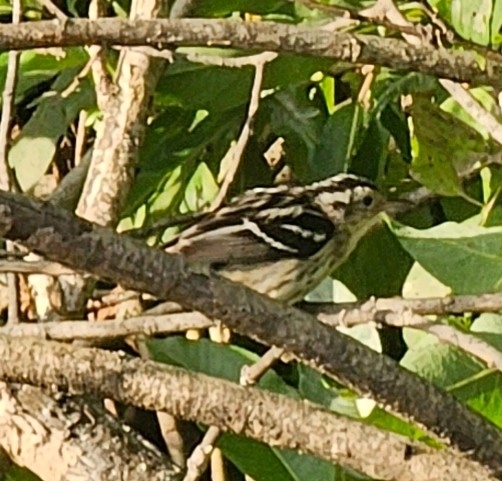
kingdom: Animalia
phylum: Chordata
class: Aves
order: Passeriformes
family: Parulidae
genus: Mniotilta
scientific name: Mniotilta varia
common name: Black-and-white warbler
